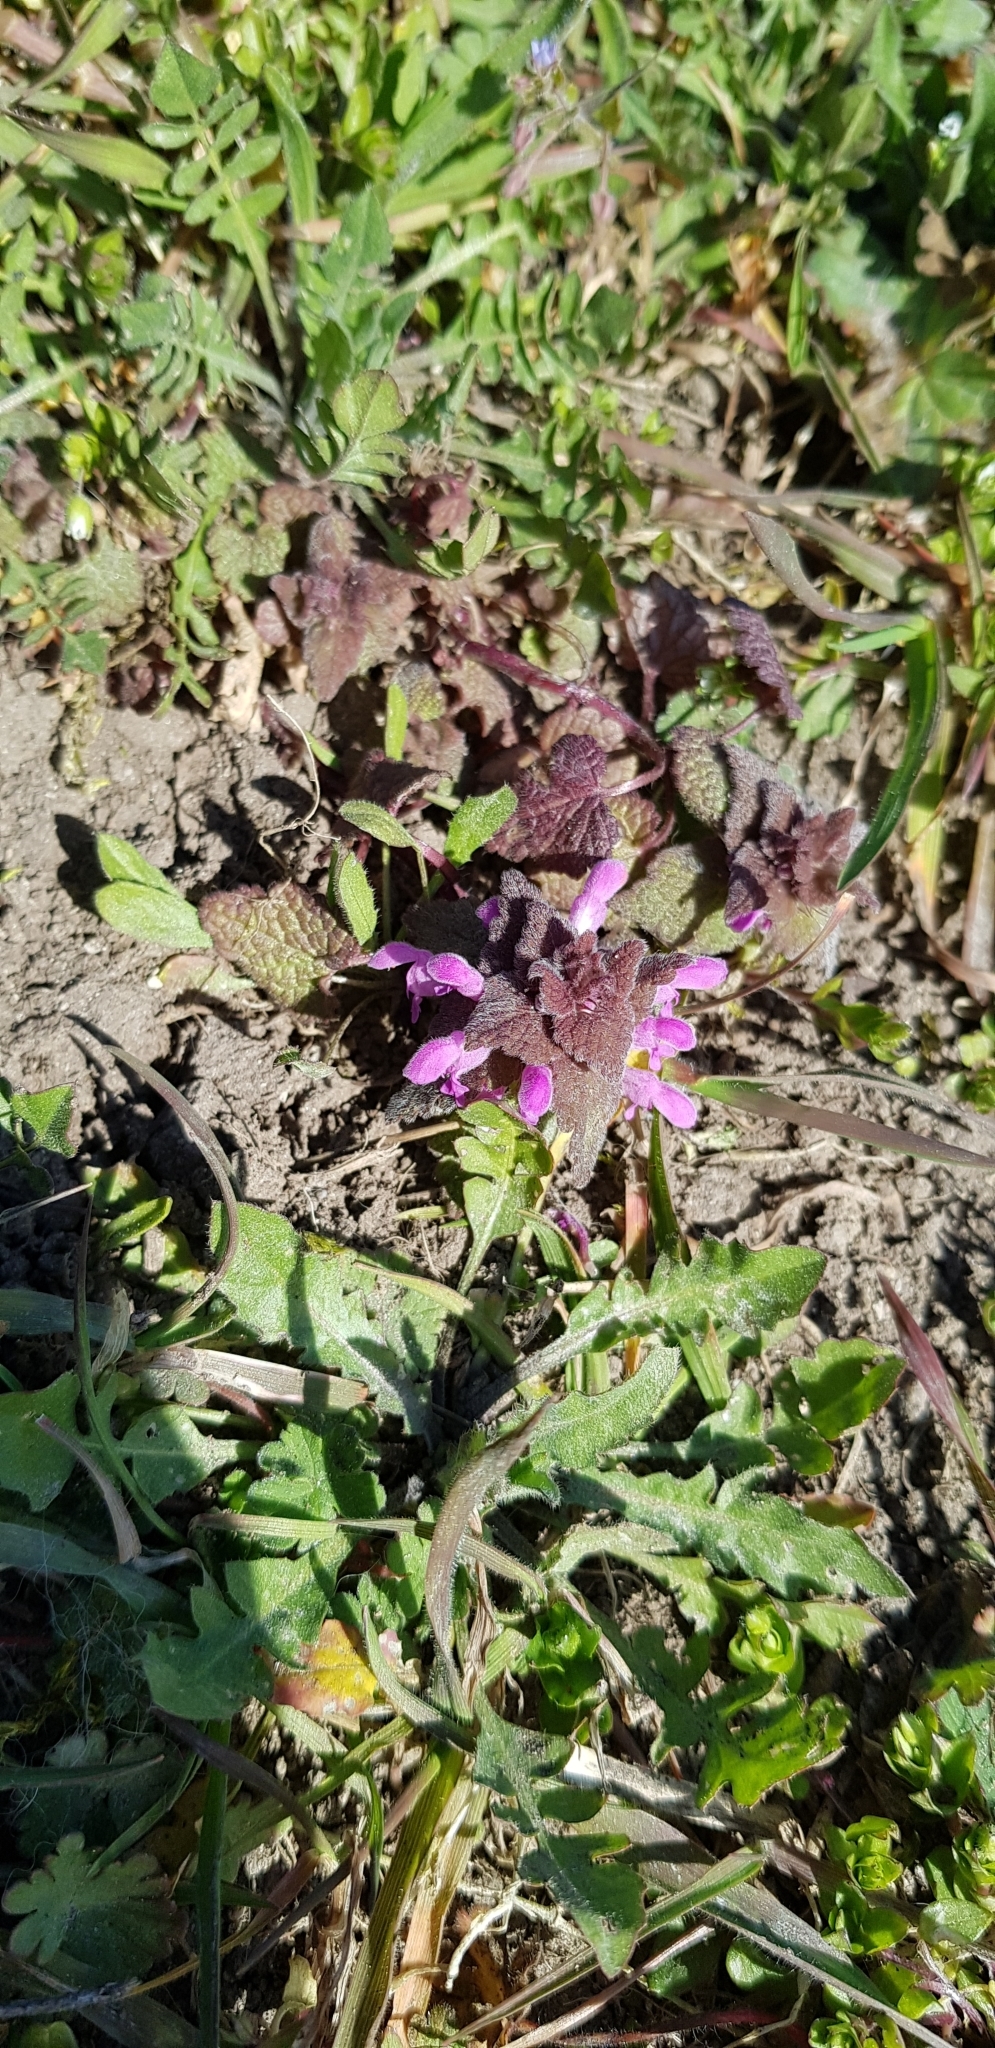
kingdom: Plantae
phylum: Tracheophyta
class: Magnoliopsida
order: Lamiales
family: Lamiaceae
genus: Lamium
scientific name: Lamium purpureum
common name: Red dead-nettle
